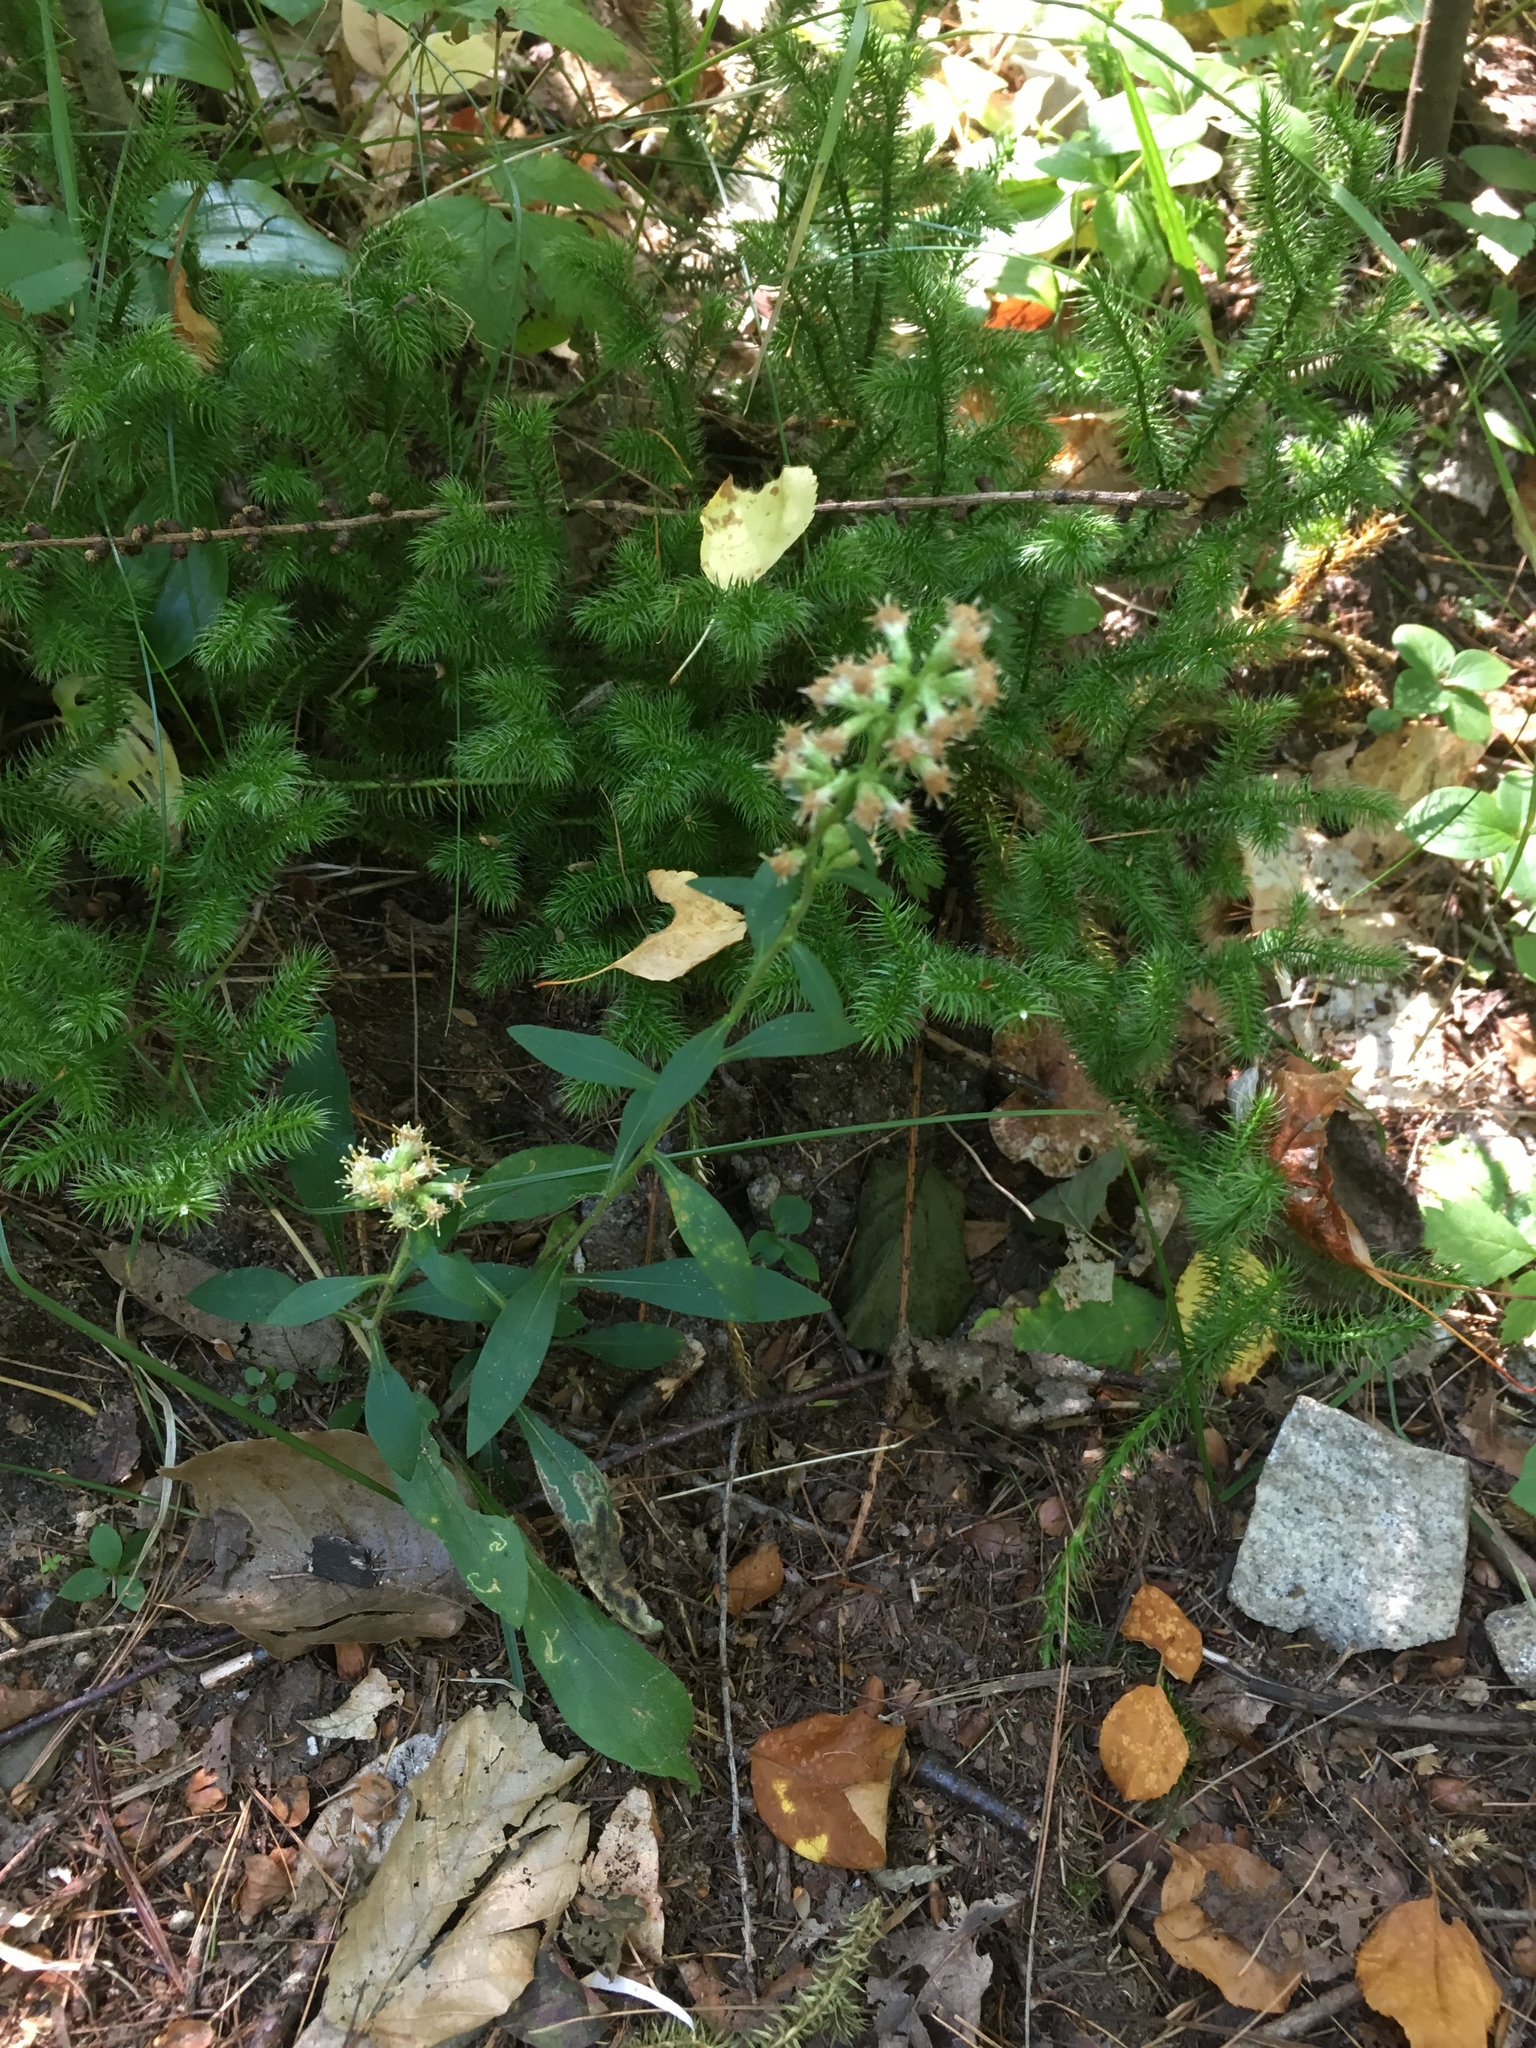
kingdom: Plantae
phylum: Tracheophyta
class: Magnoliopsida
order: Asterales
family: Asteraceae
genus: Solidago
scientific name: Solidago bicolor
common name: Silverrod
